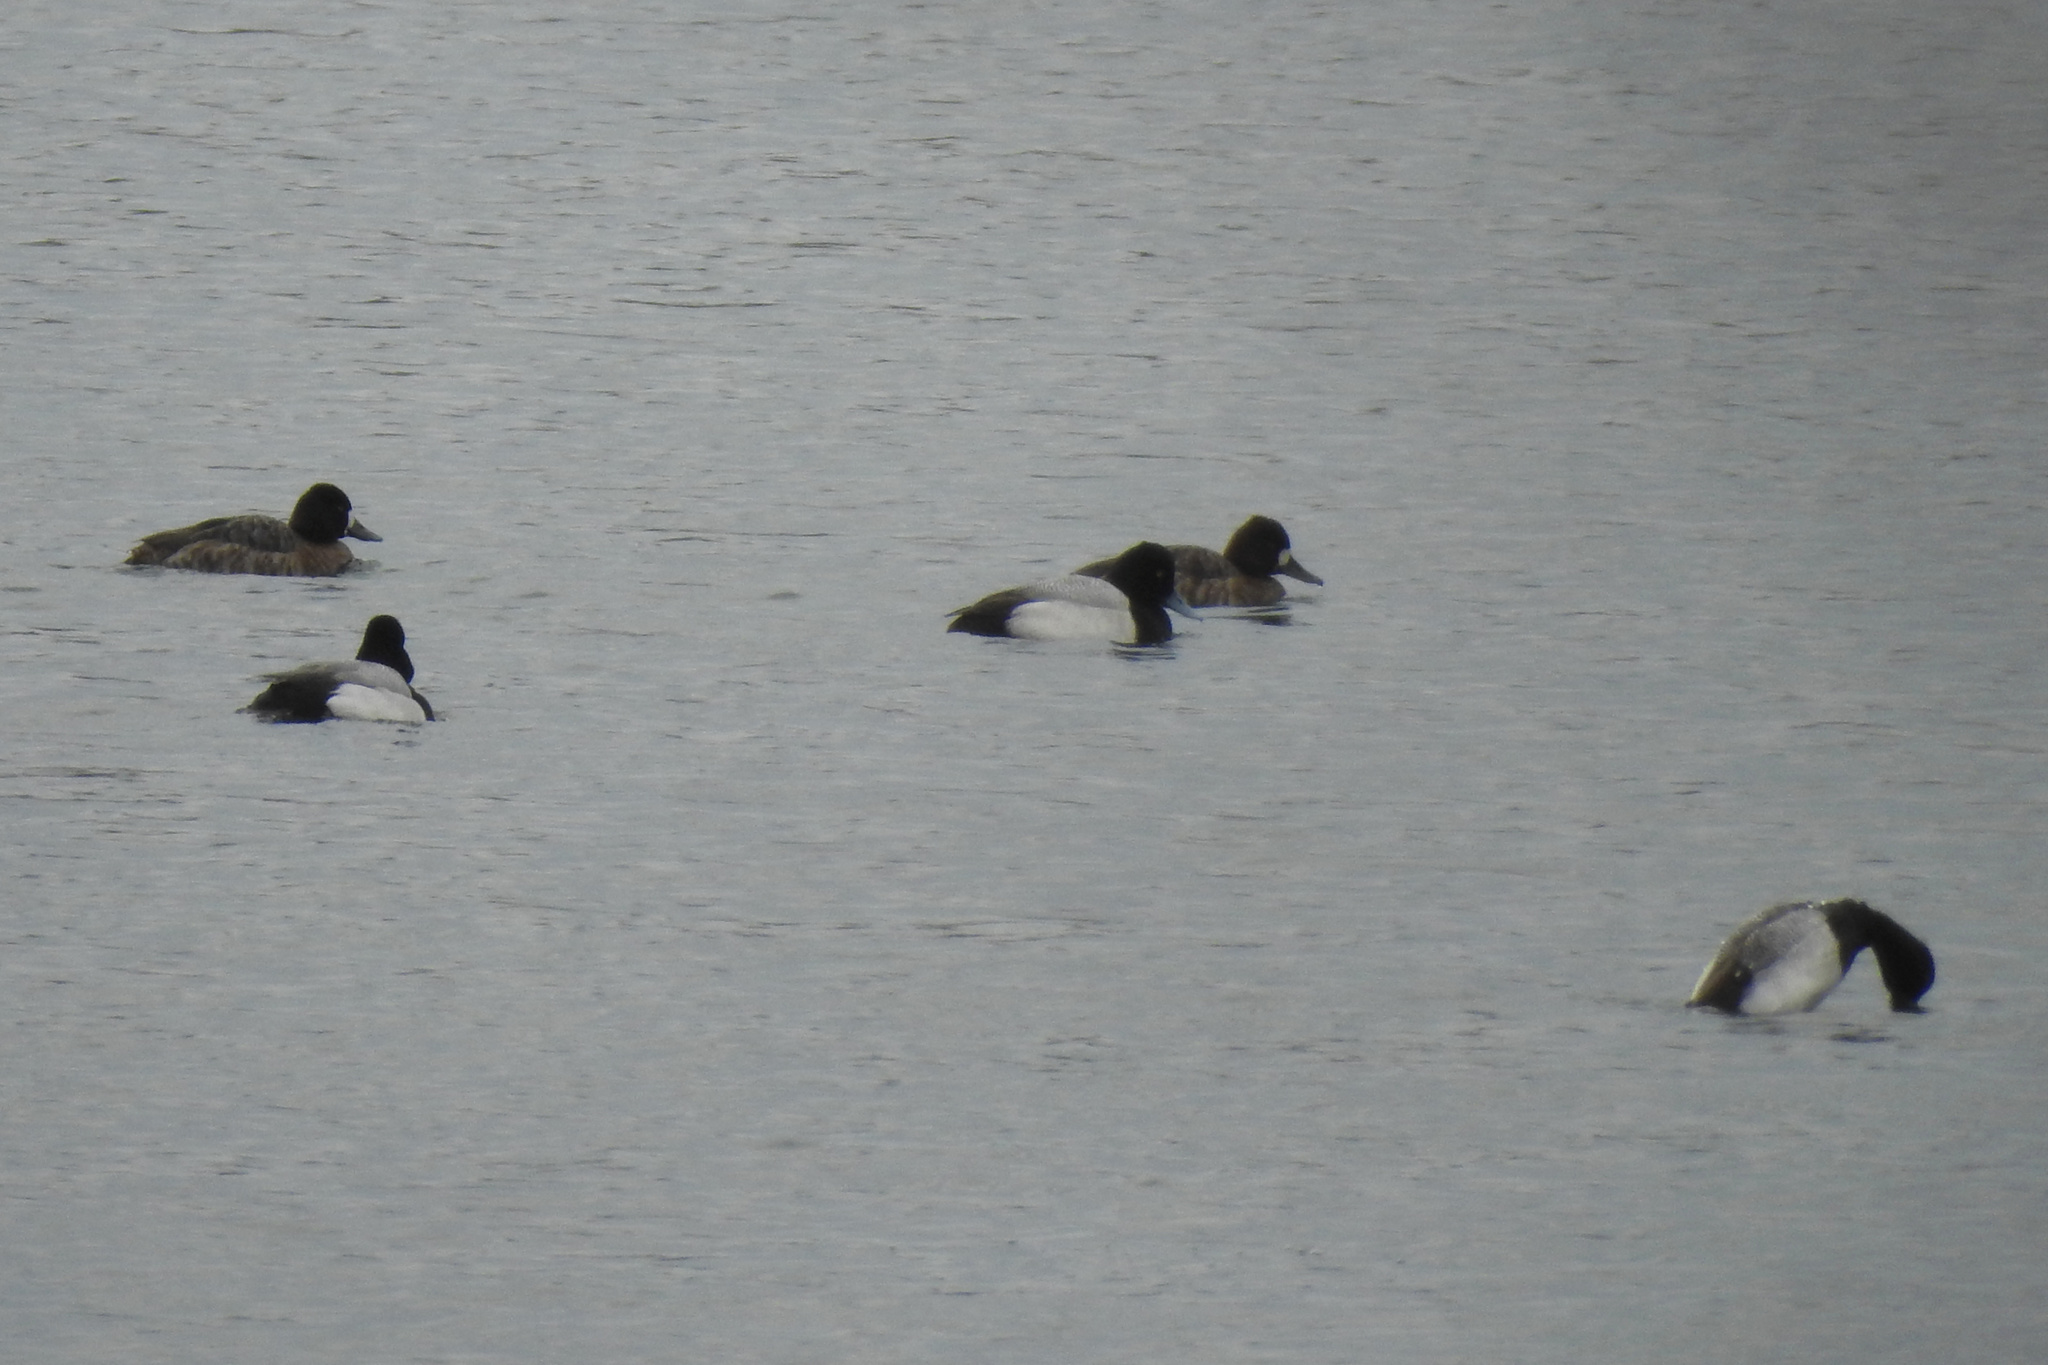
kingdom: Animalia
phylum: Chordata
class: Aves
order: Anseriformes
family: Anatidae
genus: Aythya
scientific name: Aythya affinis
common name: Lesser scaup
